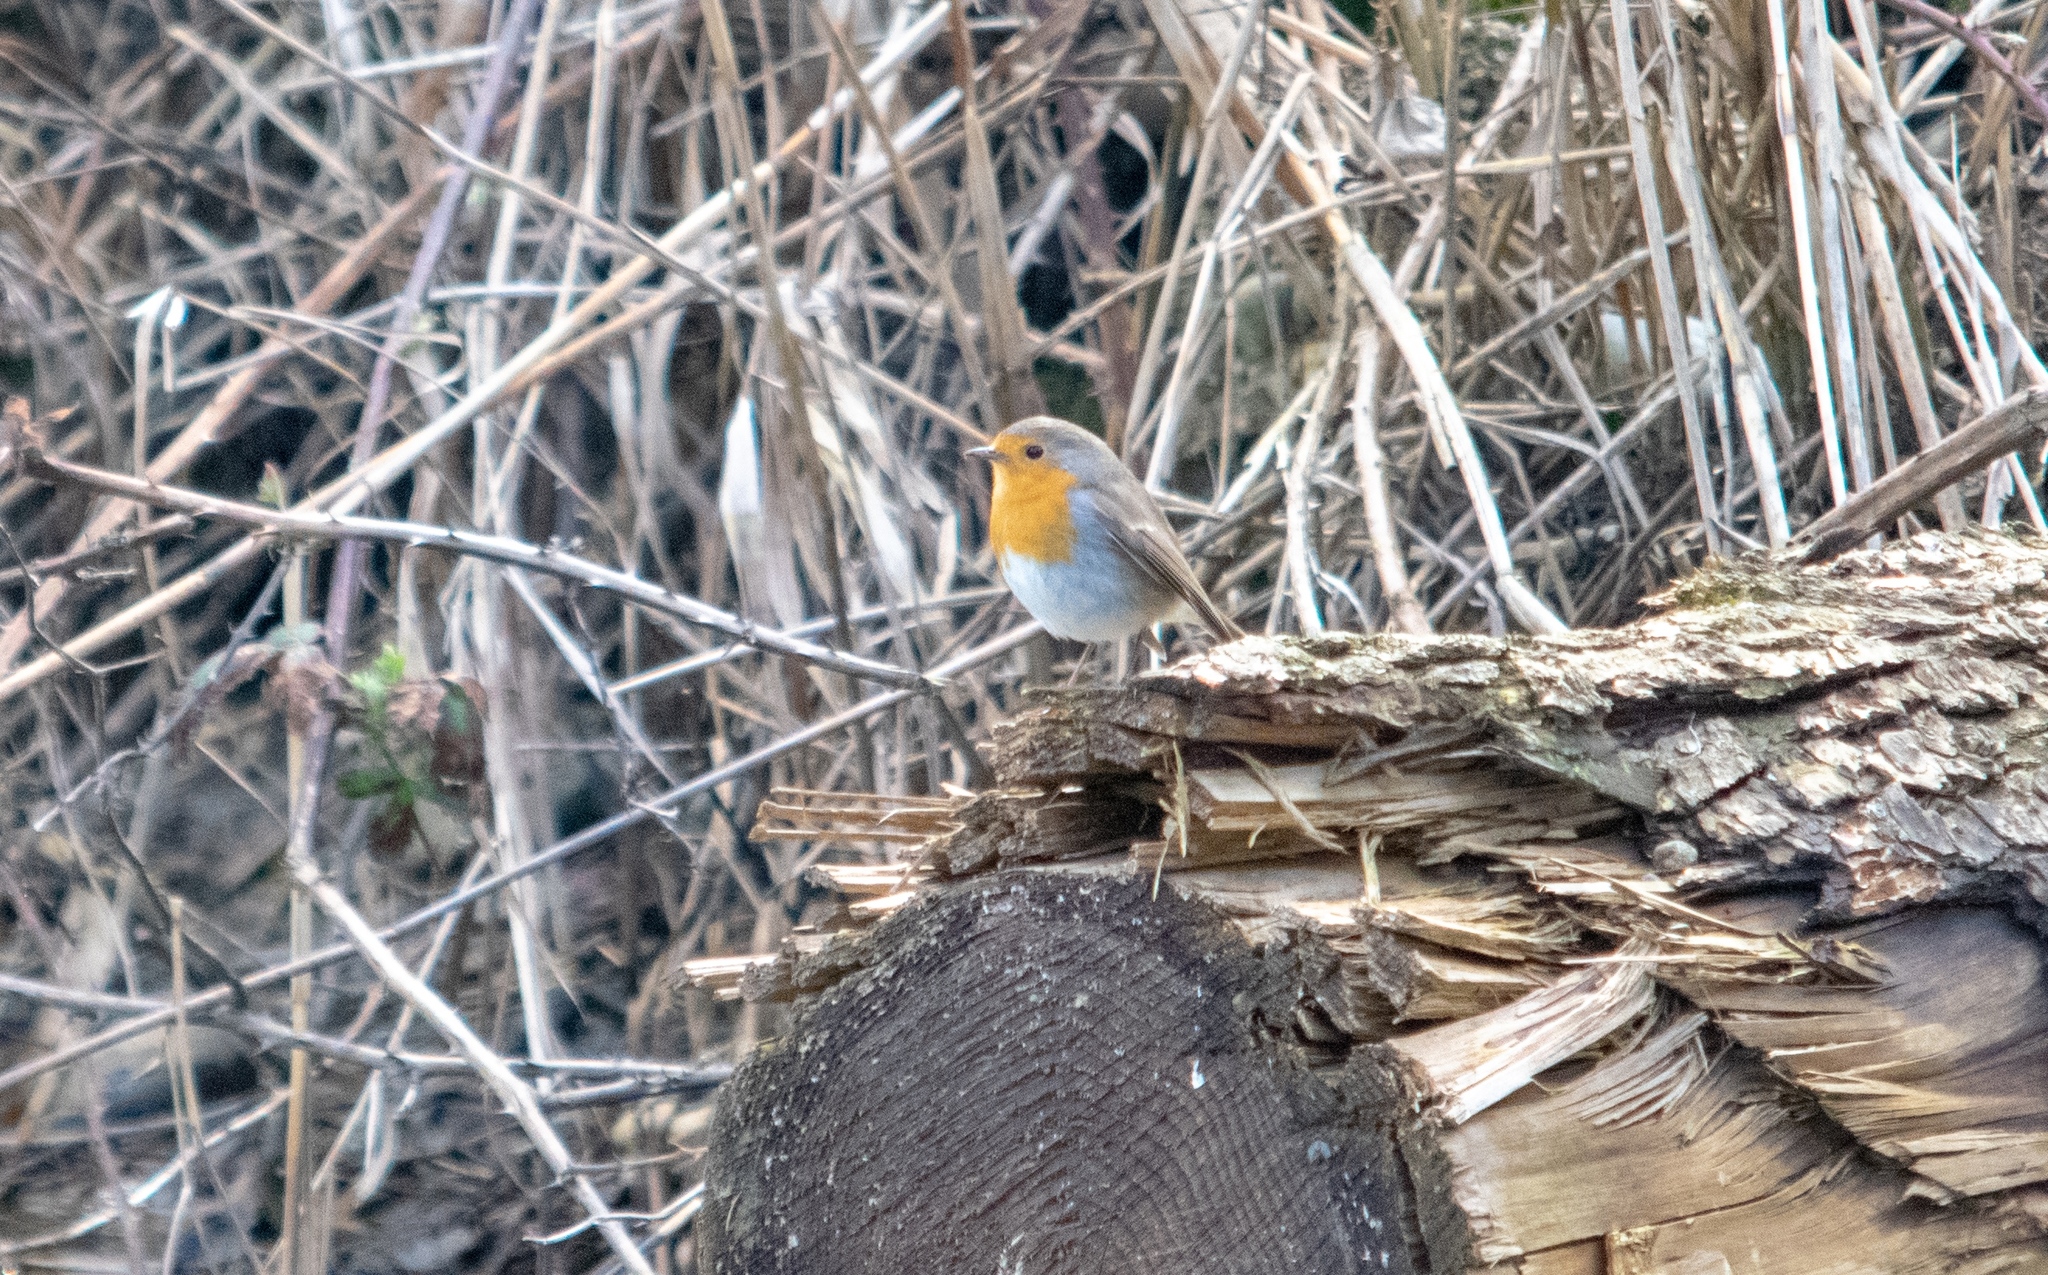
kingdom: Animalia
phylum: Chordata
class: Aves
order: Passeriformes
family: Muscicapidae
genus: Erithacus
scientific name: Erithacus rubecula
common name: European robin
